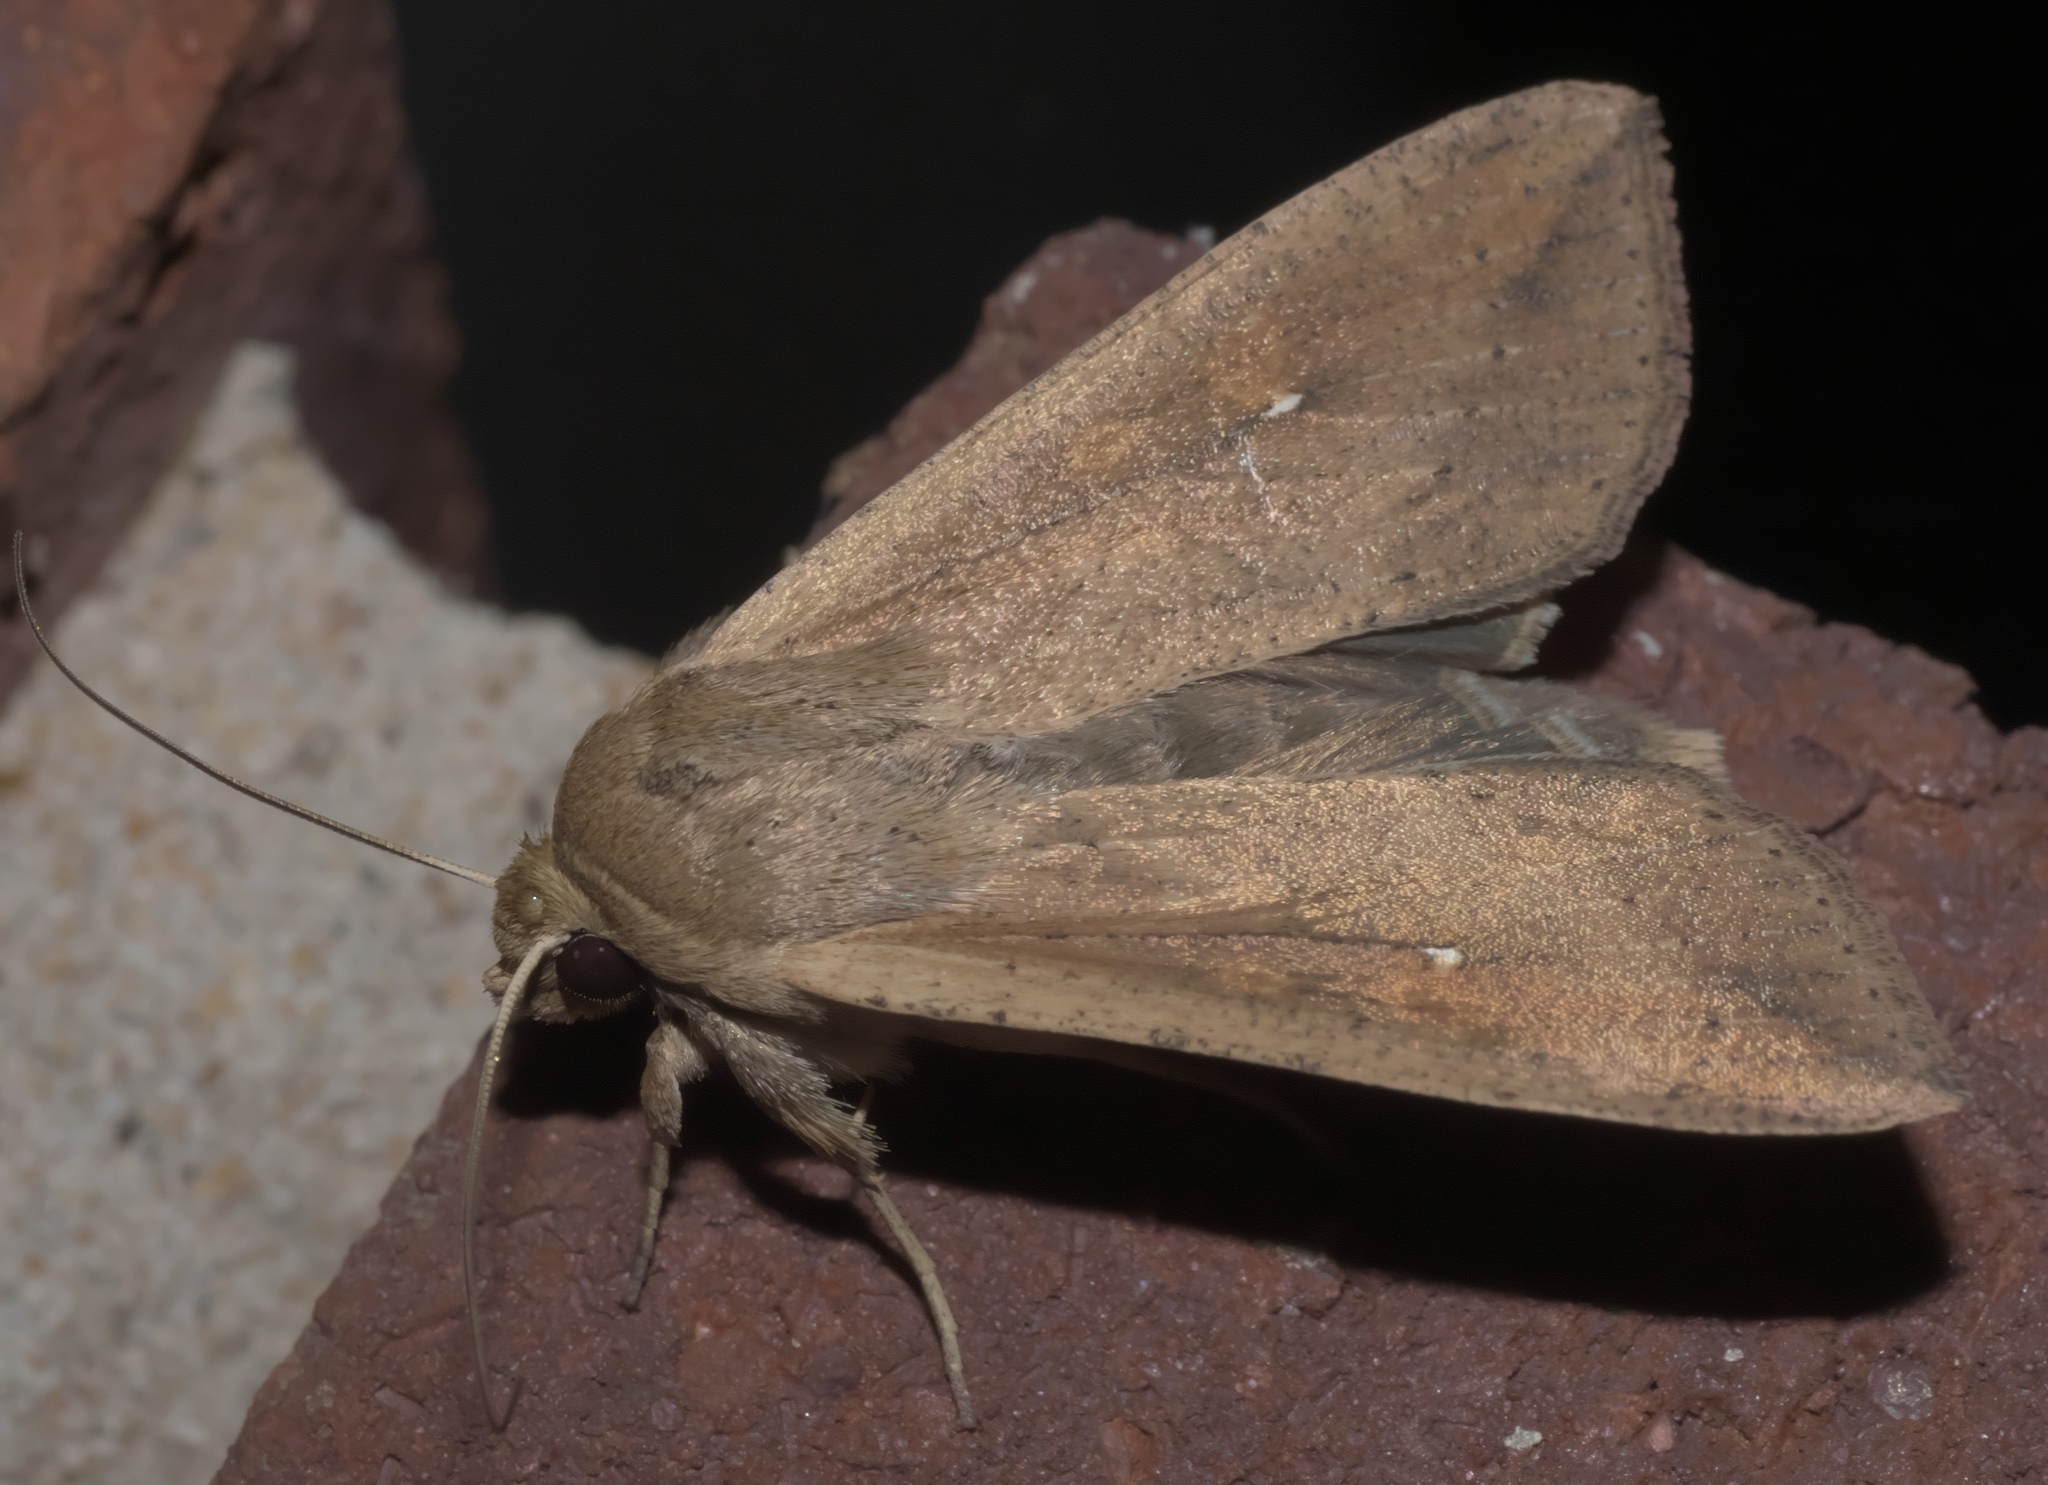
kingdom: Animalia
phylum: Arthropoda
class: Insecta
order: Lepidoptera
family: Noctuidae
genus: Mythimna
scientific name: Mythimna unipuncta
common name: White-speck
